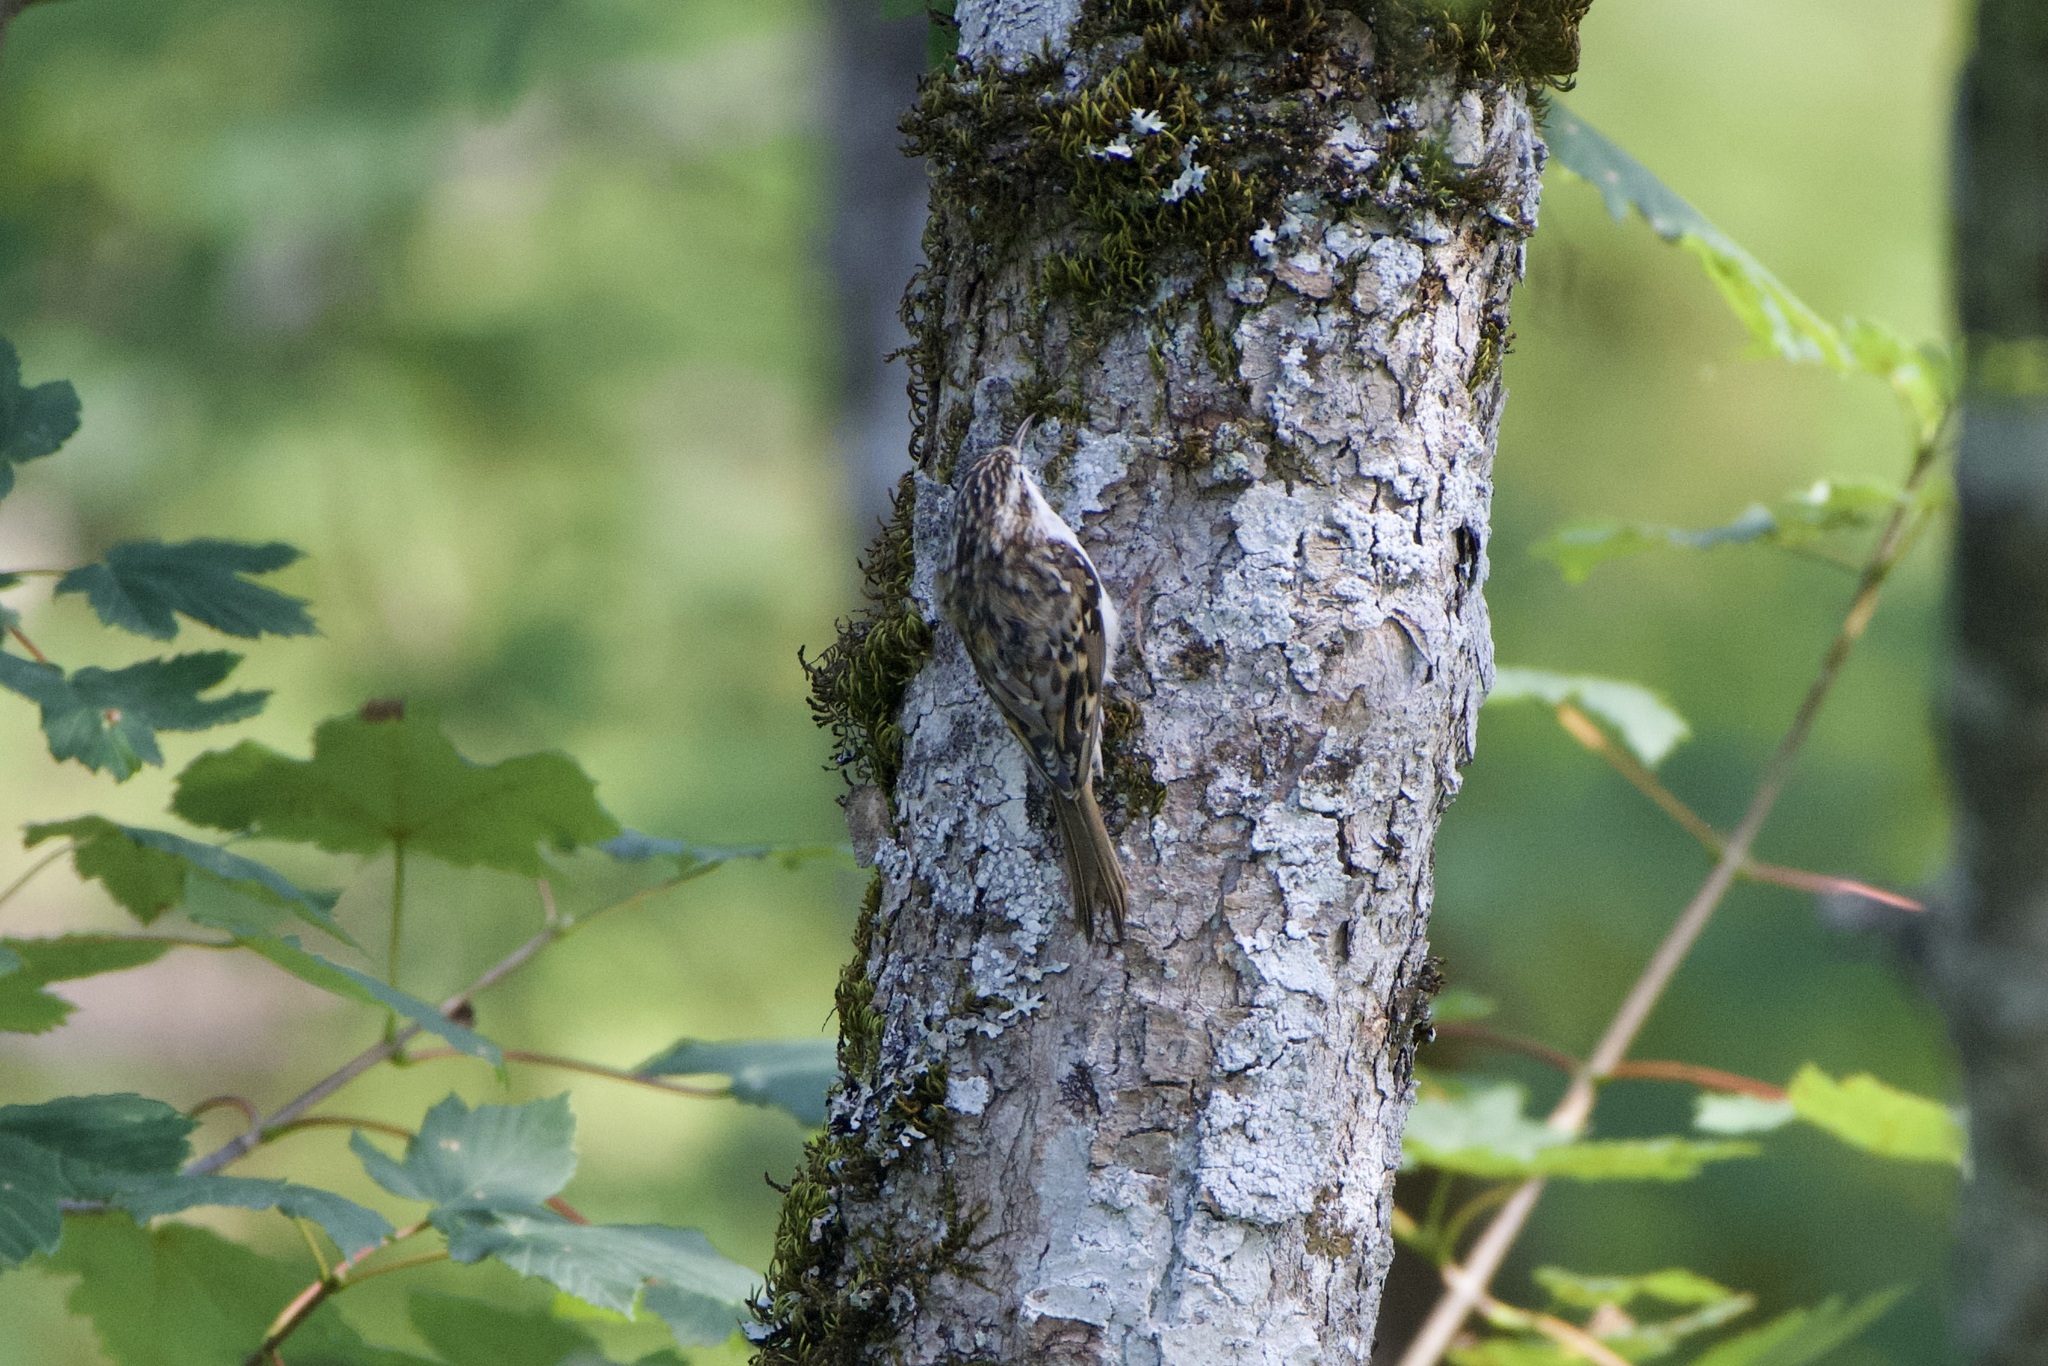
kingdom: Animalia
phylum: Chordata
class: Aves
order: Passeriformes
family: Certhiidae
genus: Certhia
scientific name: Certhia familiaris
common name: Eurasian treecreeper
